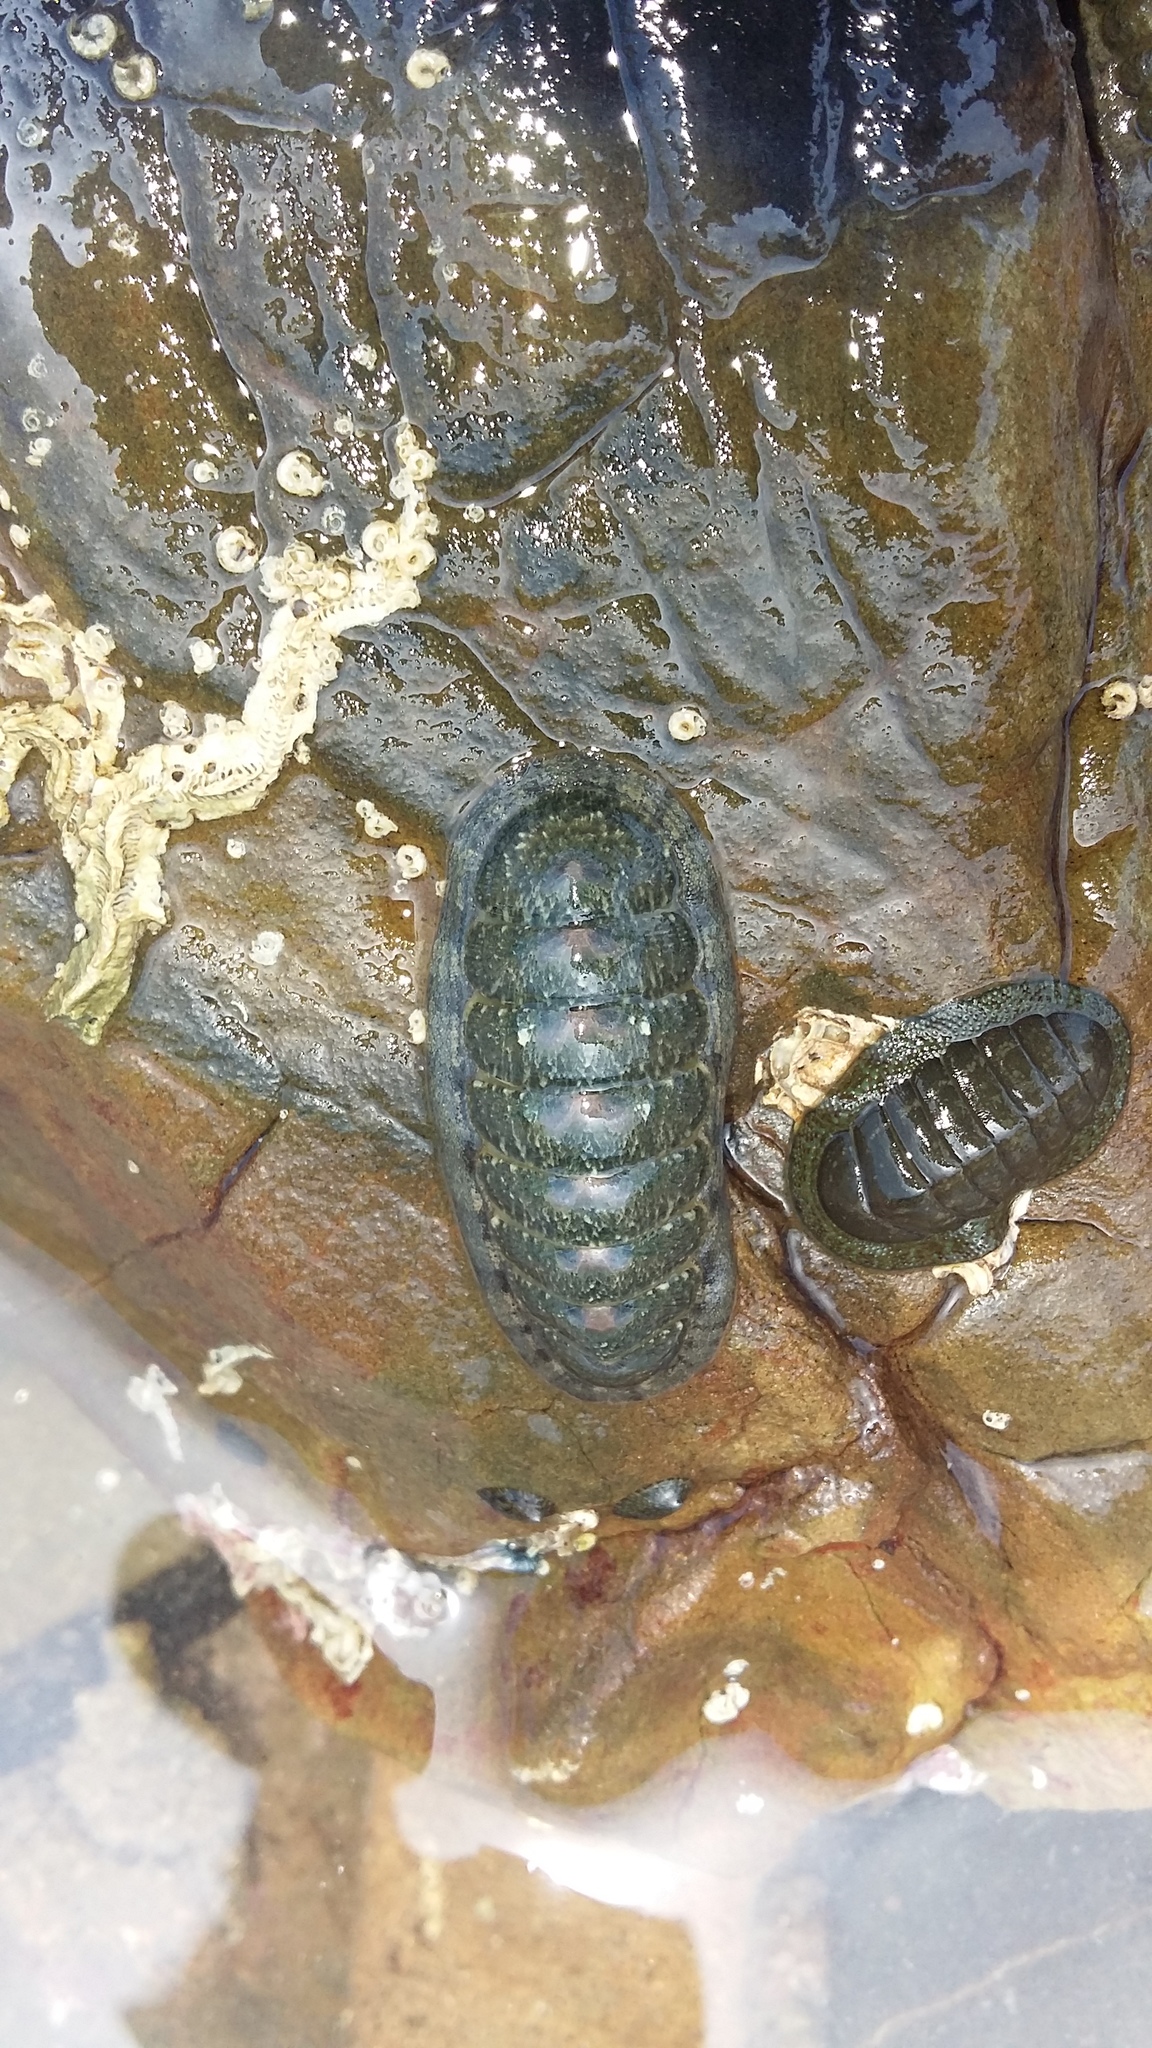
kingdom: Animalia
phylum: Mollusca
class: Polyplacophora
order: Chitonida
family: Ischnochitonidae
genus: Ischnochiton
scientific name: Ischnochiton maorianus
